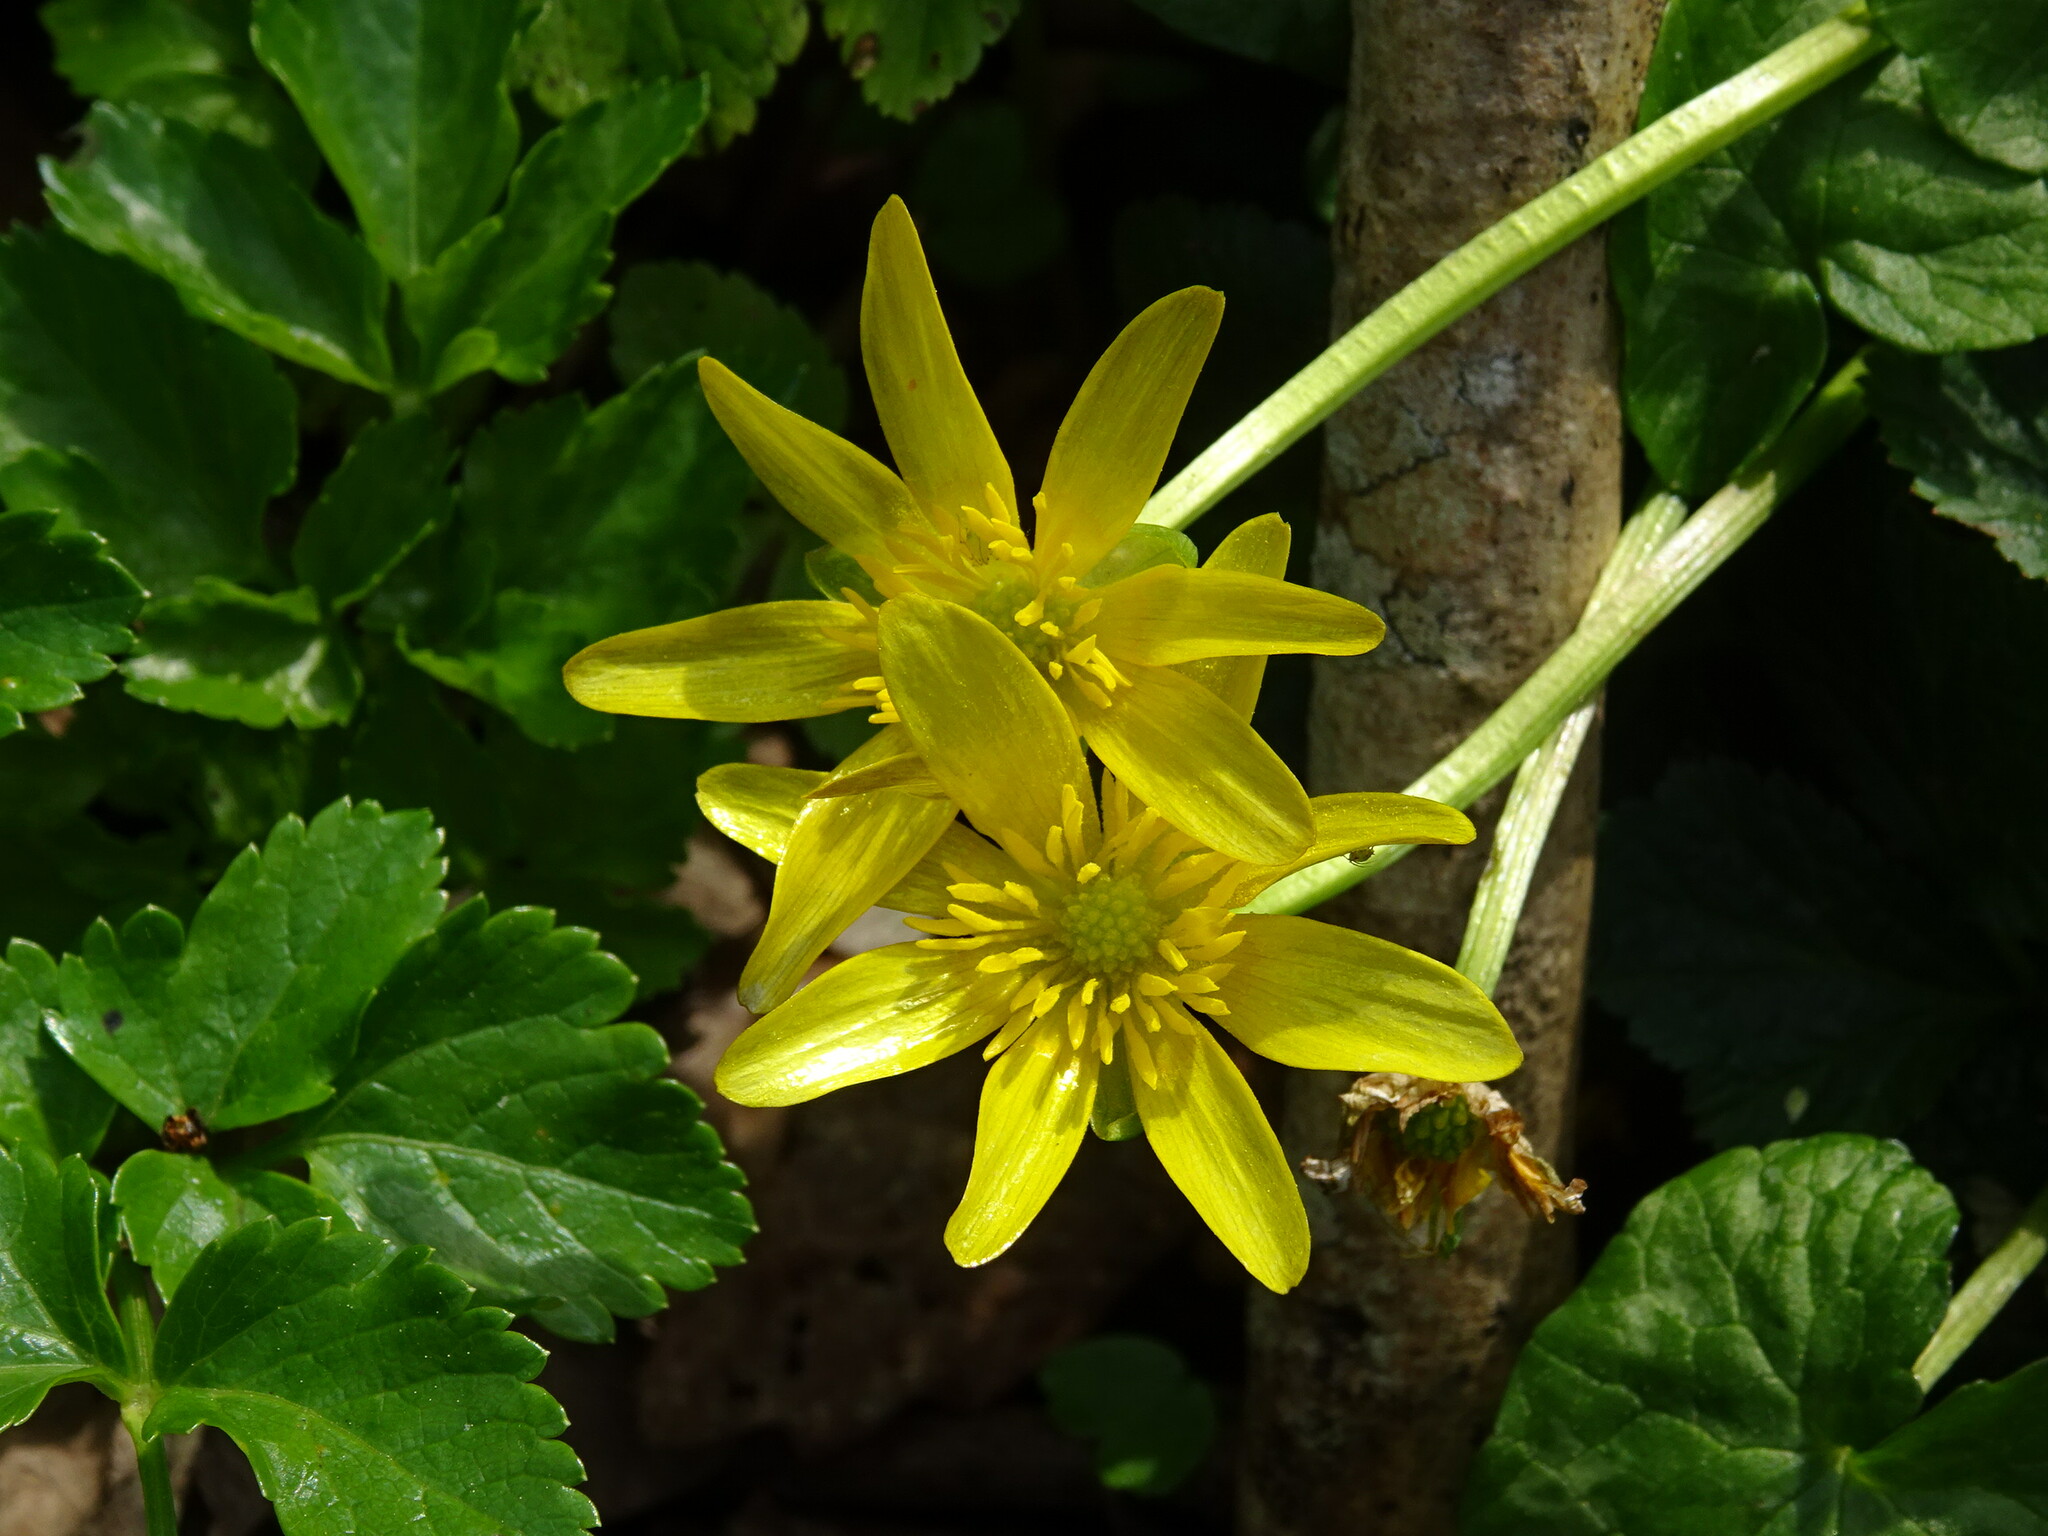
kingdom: Plantae
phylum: Tracheophyta
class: Magnoliopsida
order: Ranunculales
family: Ranunculaceae
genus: Ficaria
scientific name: Ficaria verna
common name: Lesser celandine
